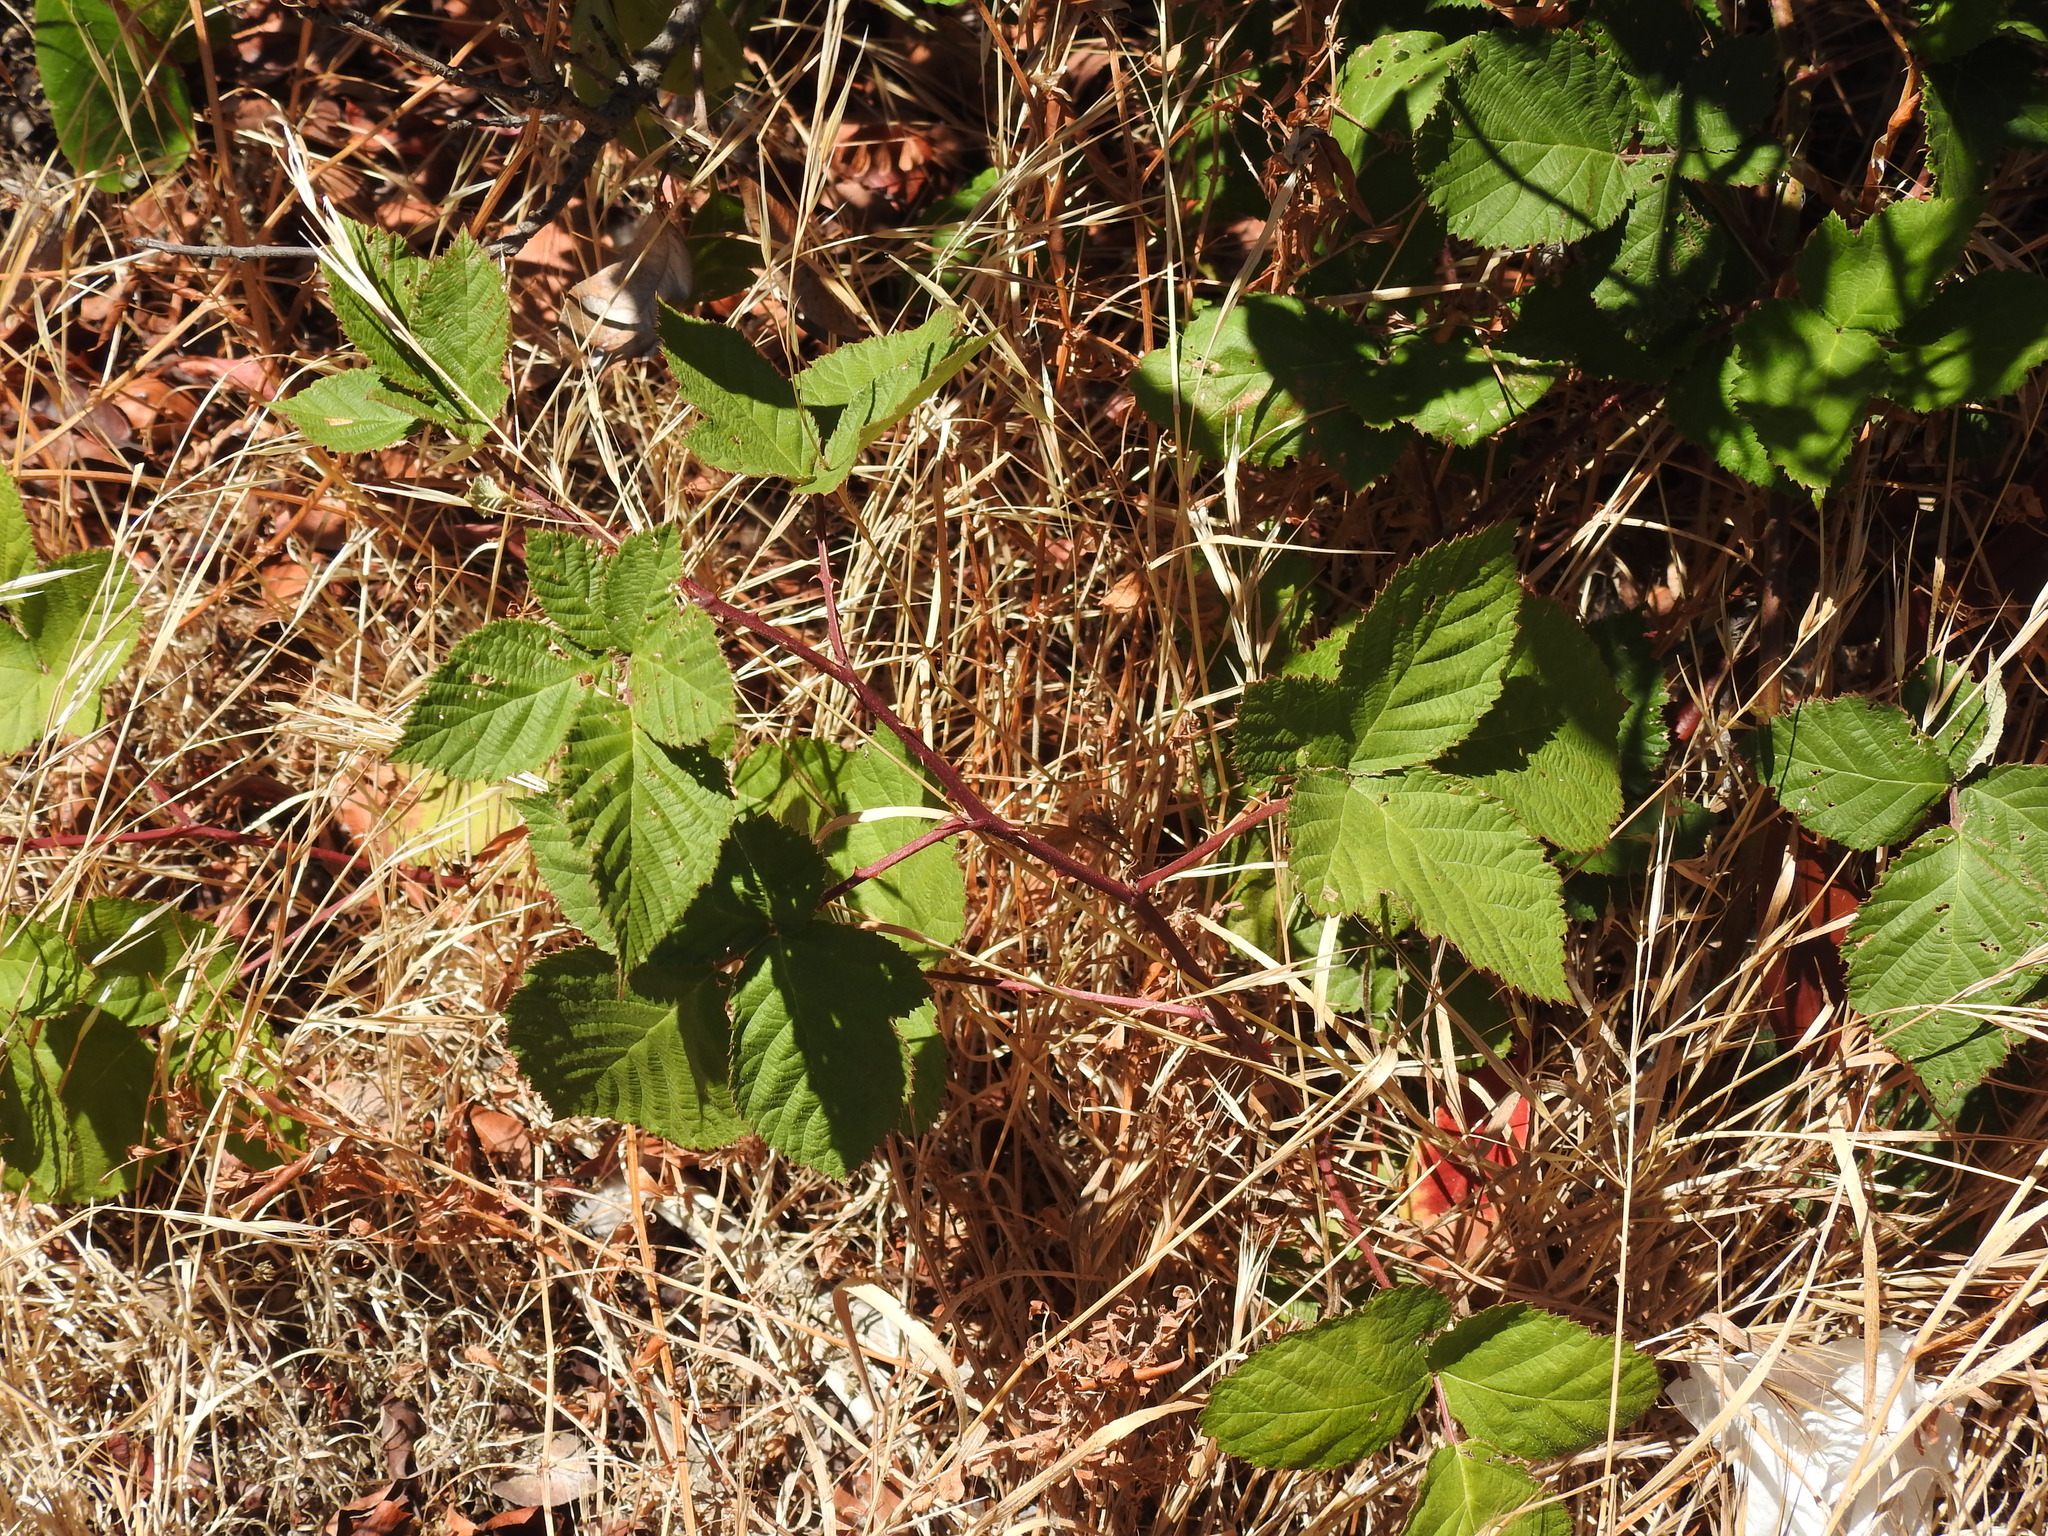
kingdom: Plantae
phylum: Tracheophyta
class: Magnoliopsida
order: Rosales
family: Rosaceae
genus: Rubus
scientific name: Rubus armeniacus
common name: Himalayan blackberry
